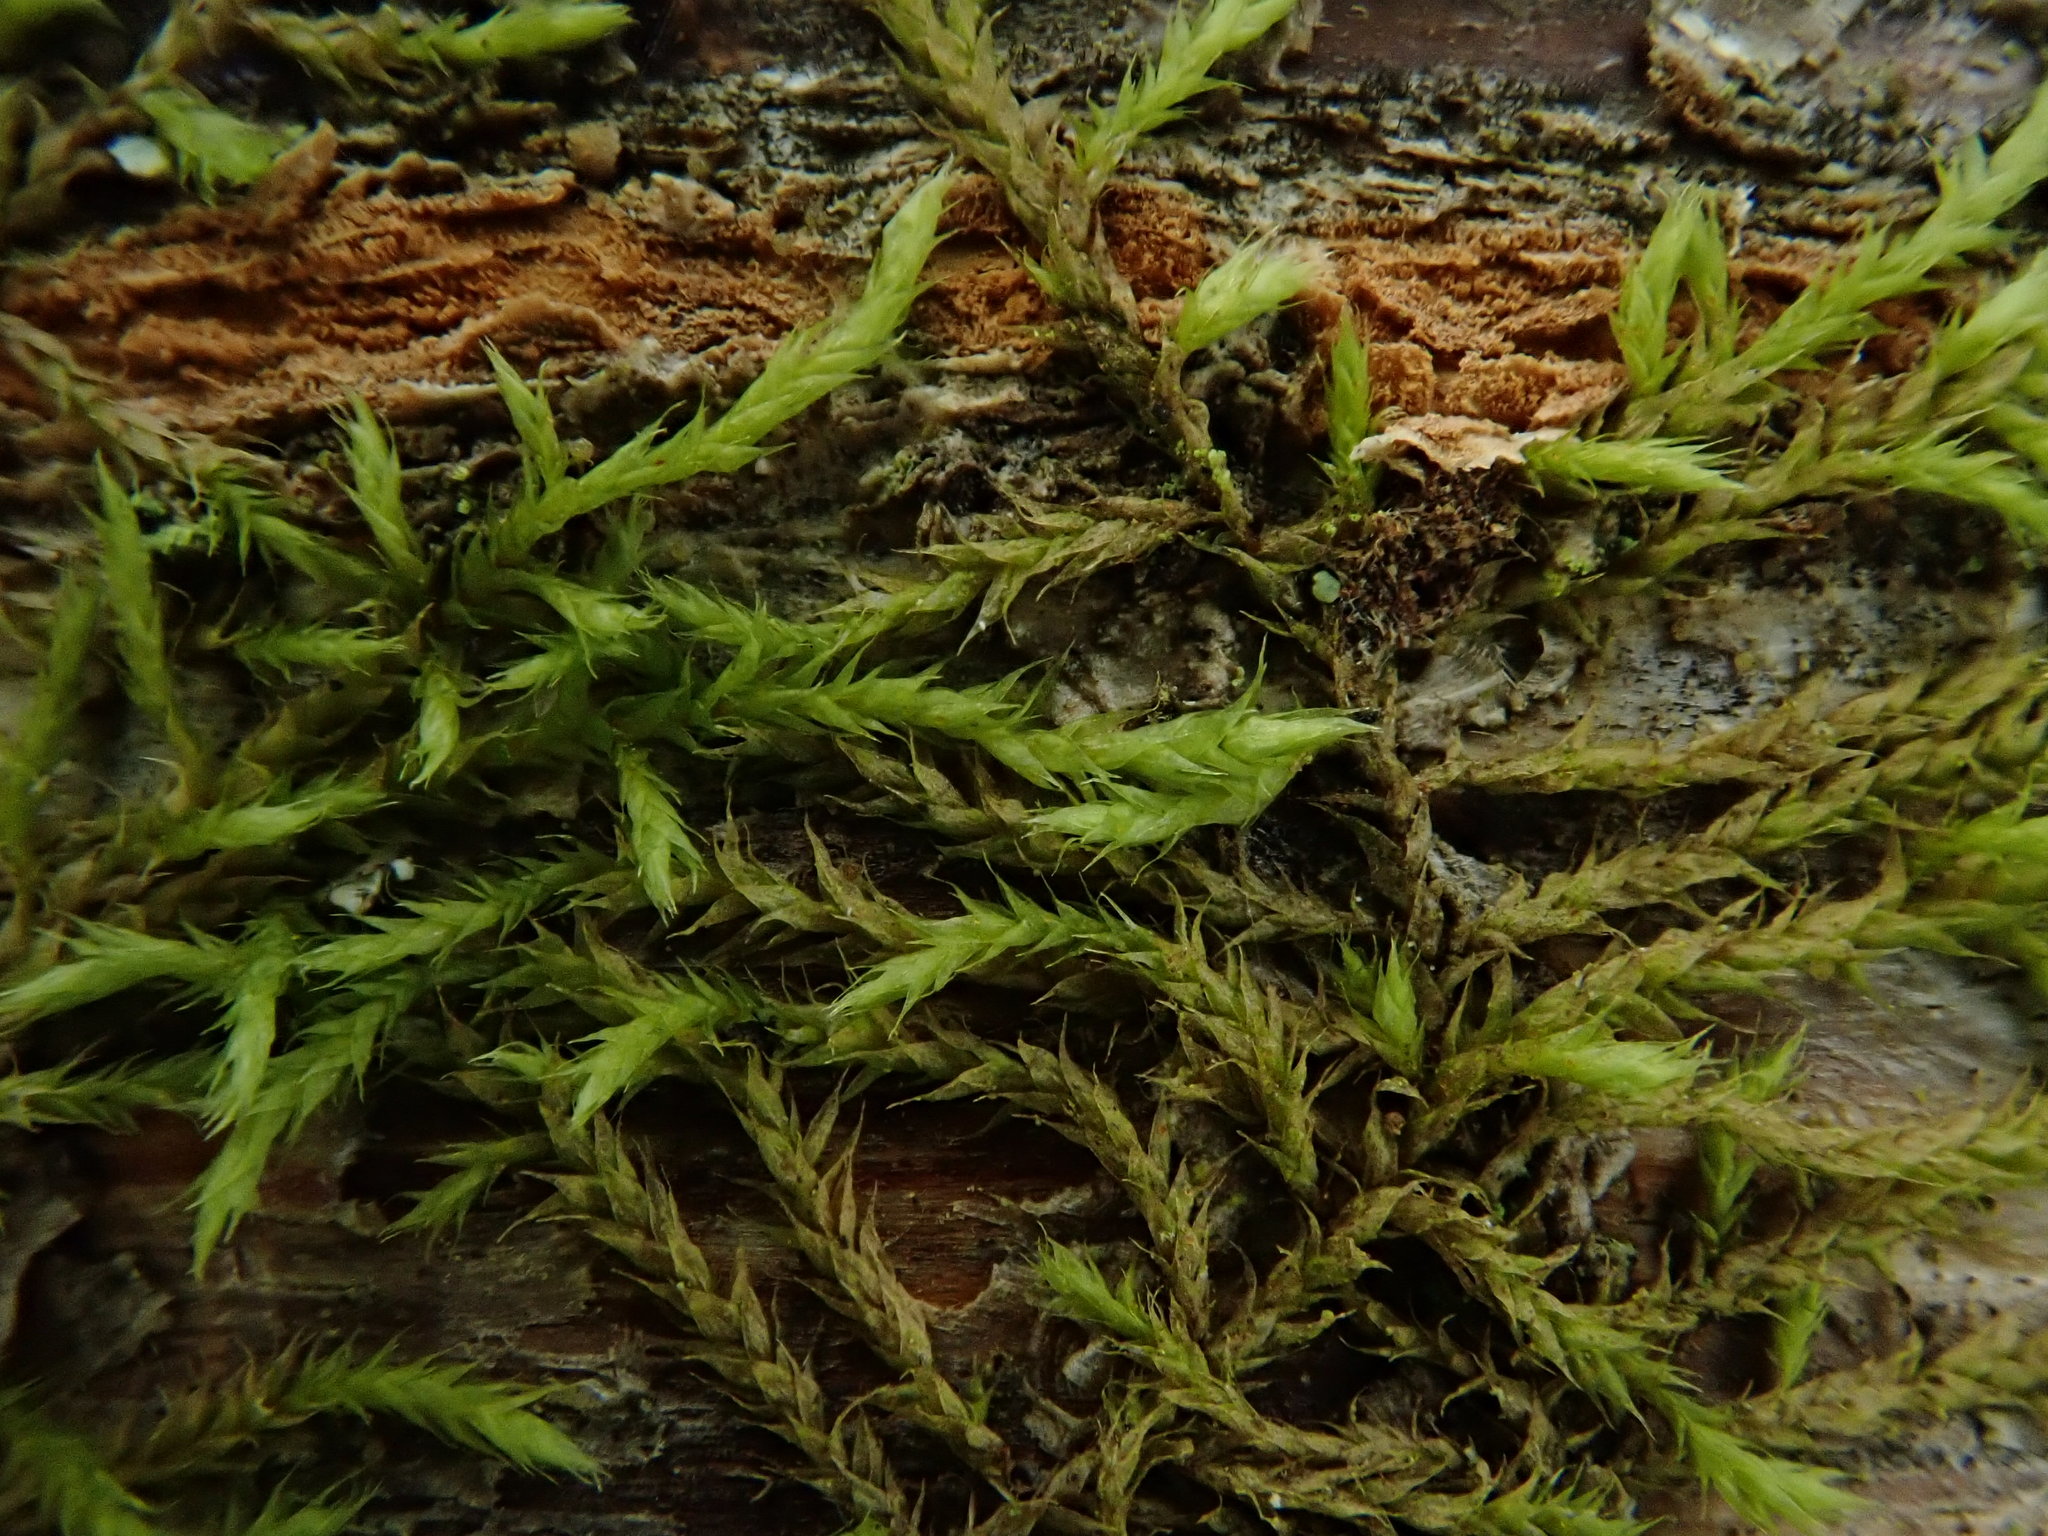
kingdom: Plantae
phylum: Bryophyta
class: Bryopsida
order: Hypnales
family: Cryphaeaceae
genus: Cryphaea
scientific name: Cryphaea heteromalla
